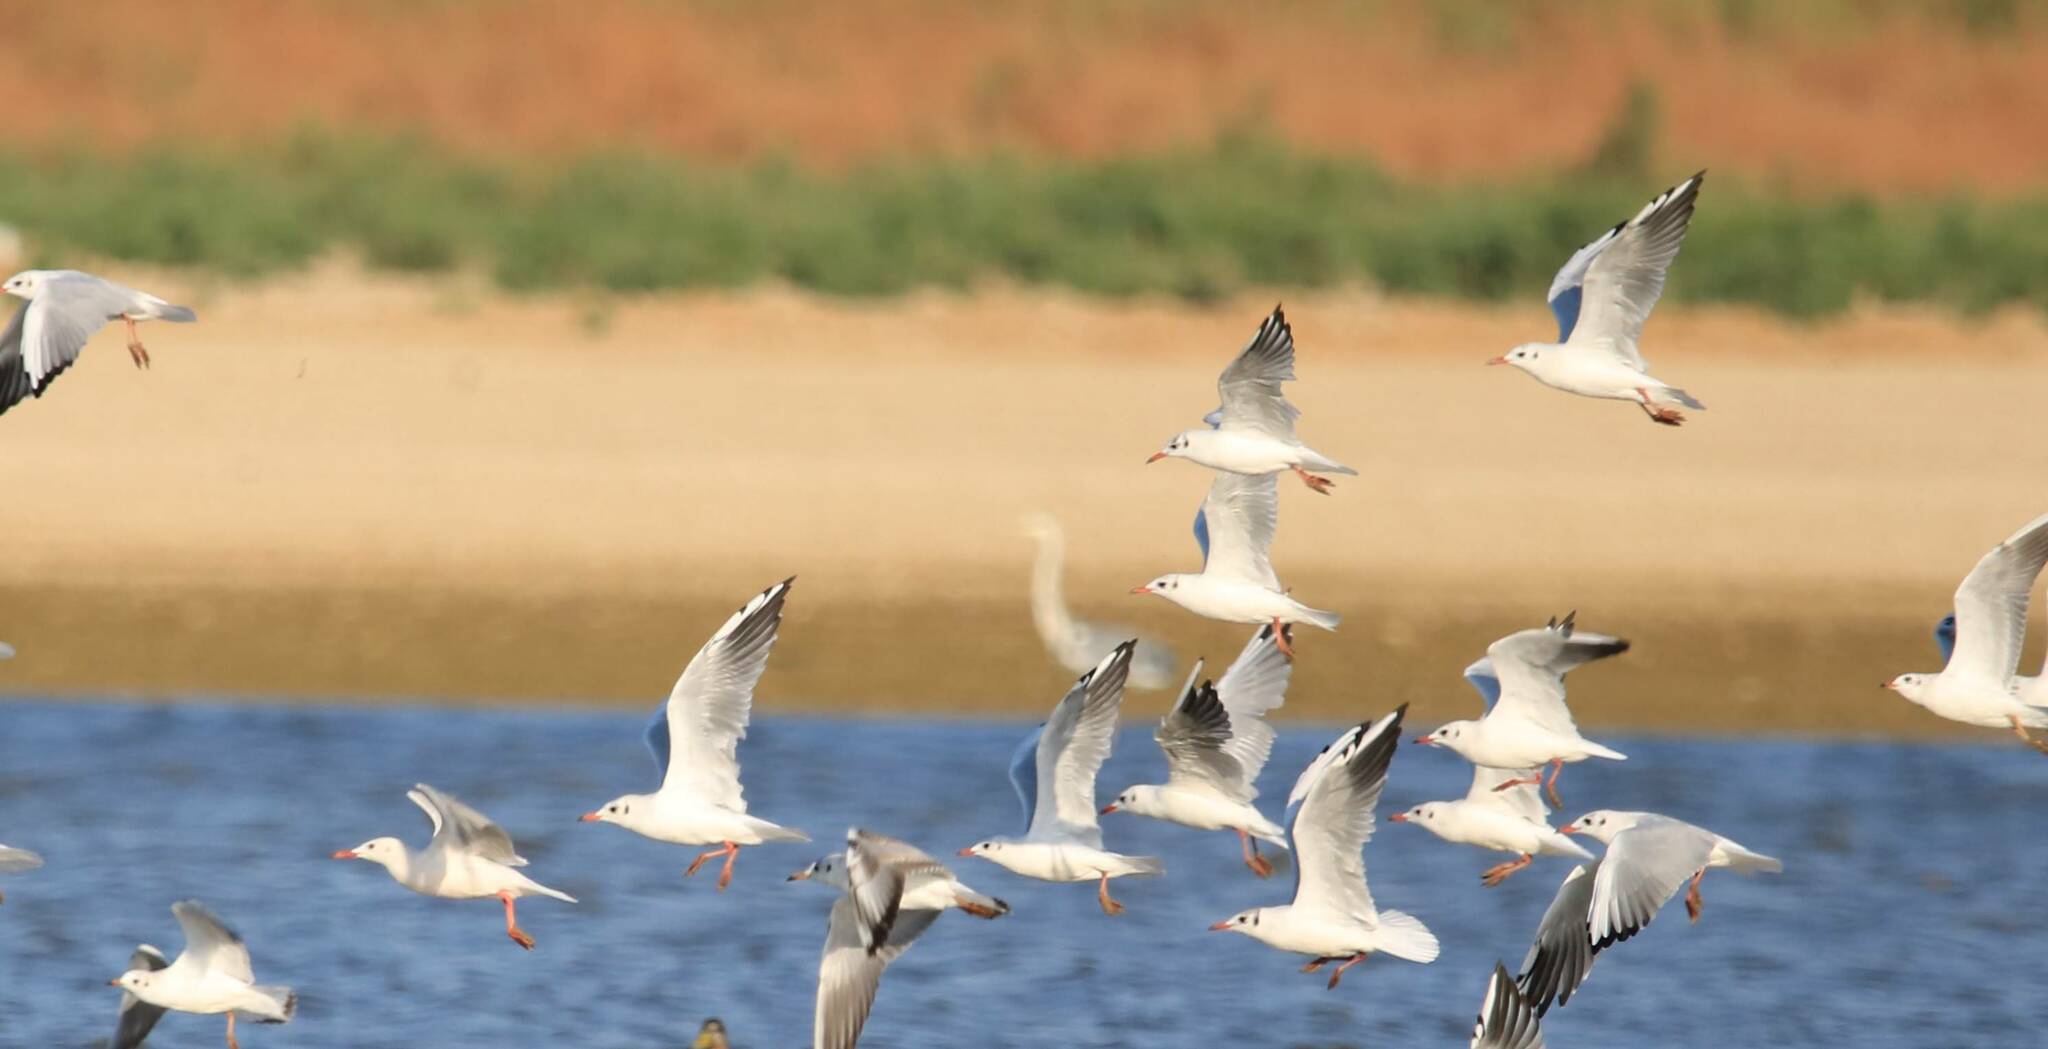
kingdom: Animalia
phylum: Chordata
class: Aves
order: Charadriiformes
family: Laridae
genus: Chroicocephalus
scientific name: Chroicocephalus ridibundus
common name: Black-headed gull
